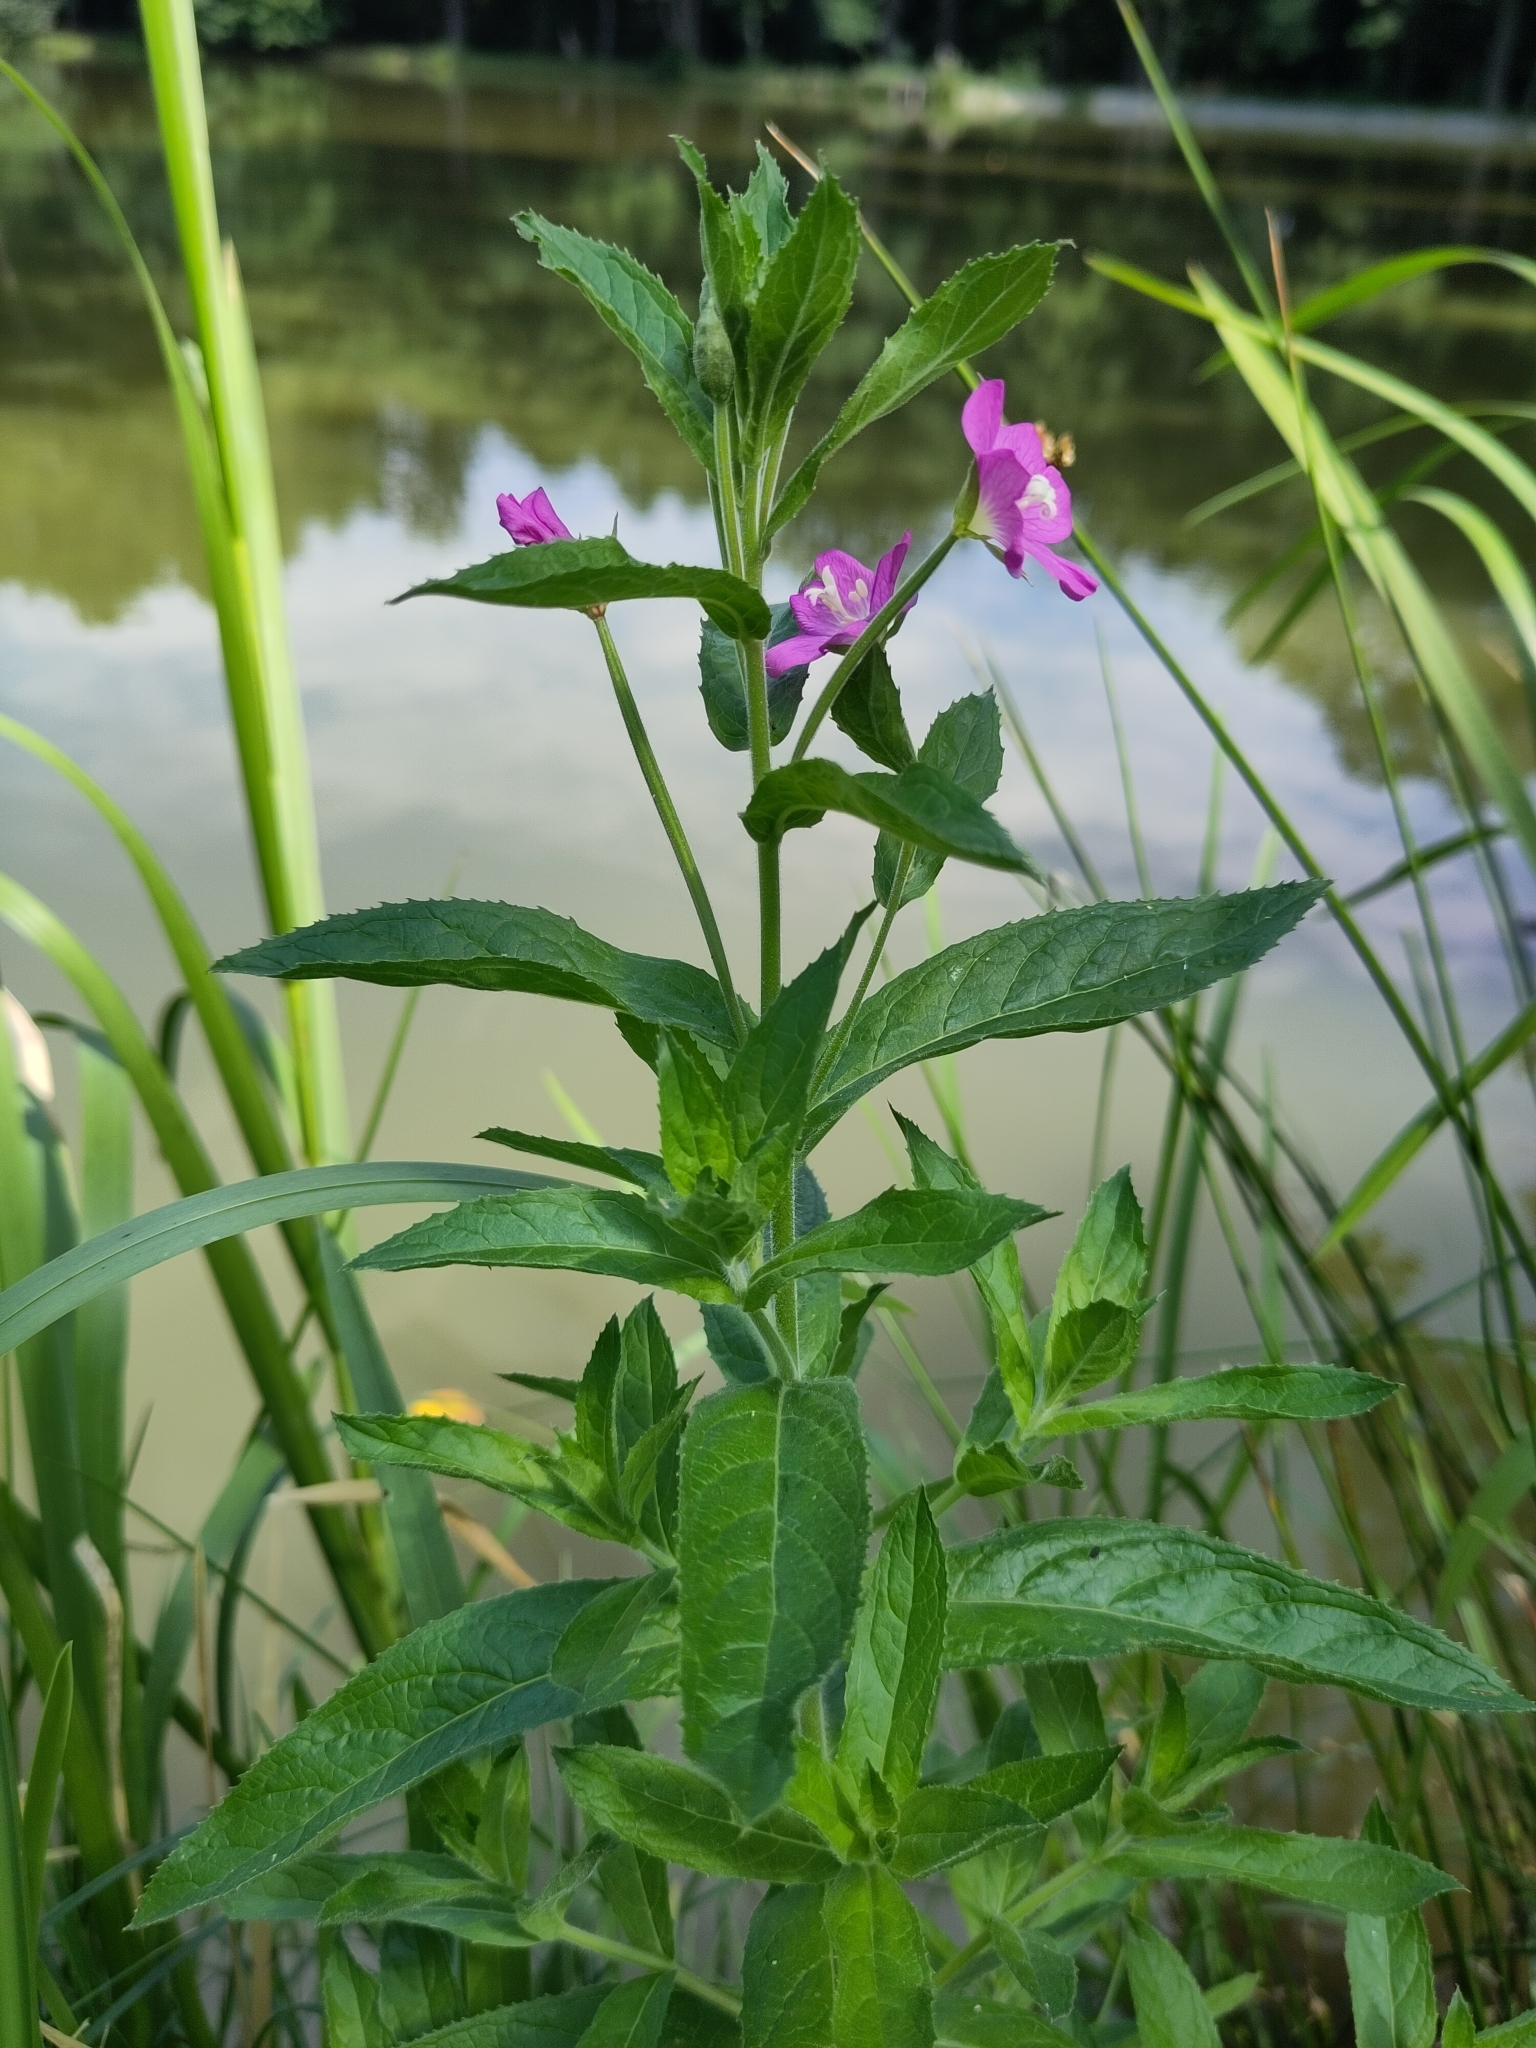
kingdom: Plantae
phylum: Tracheophyta
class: Magnoliopsida
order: Myrtales
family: Onagraceae
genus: Epilobium
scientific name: Epilobium hirsutum
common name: Great willowherb
